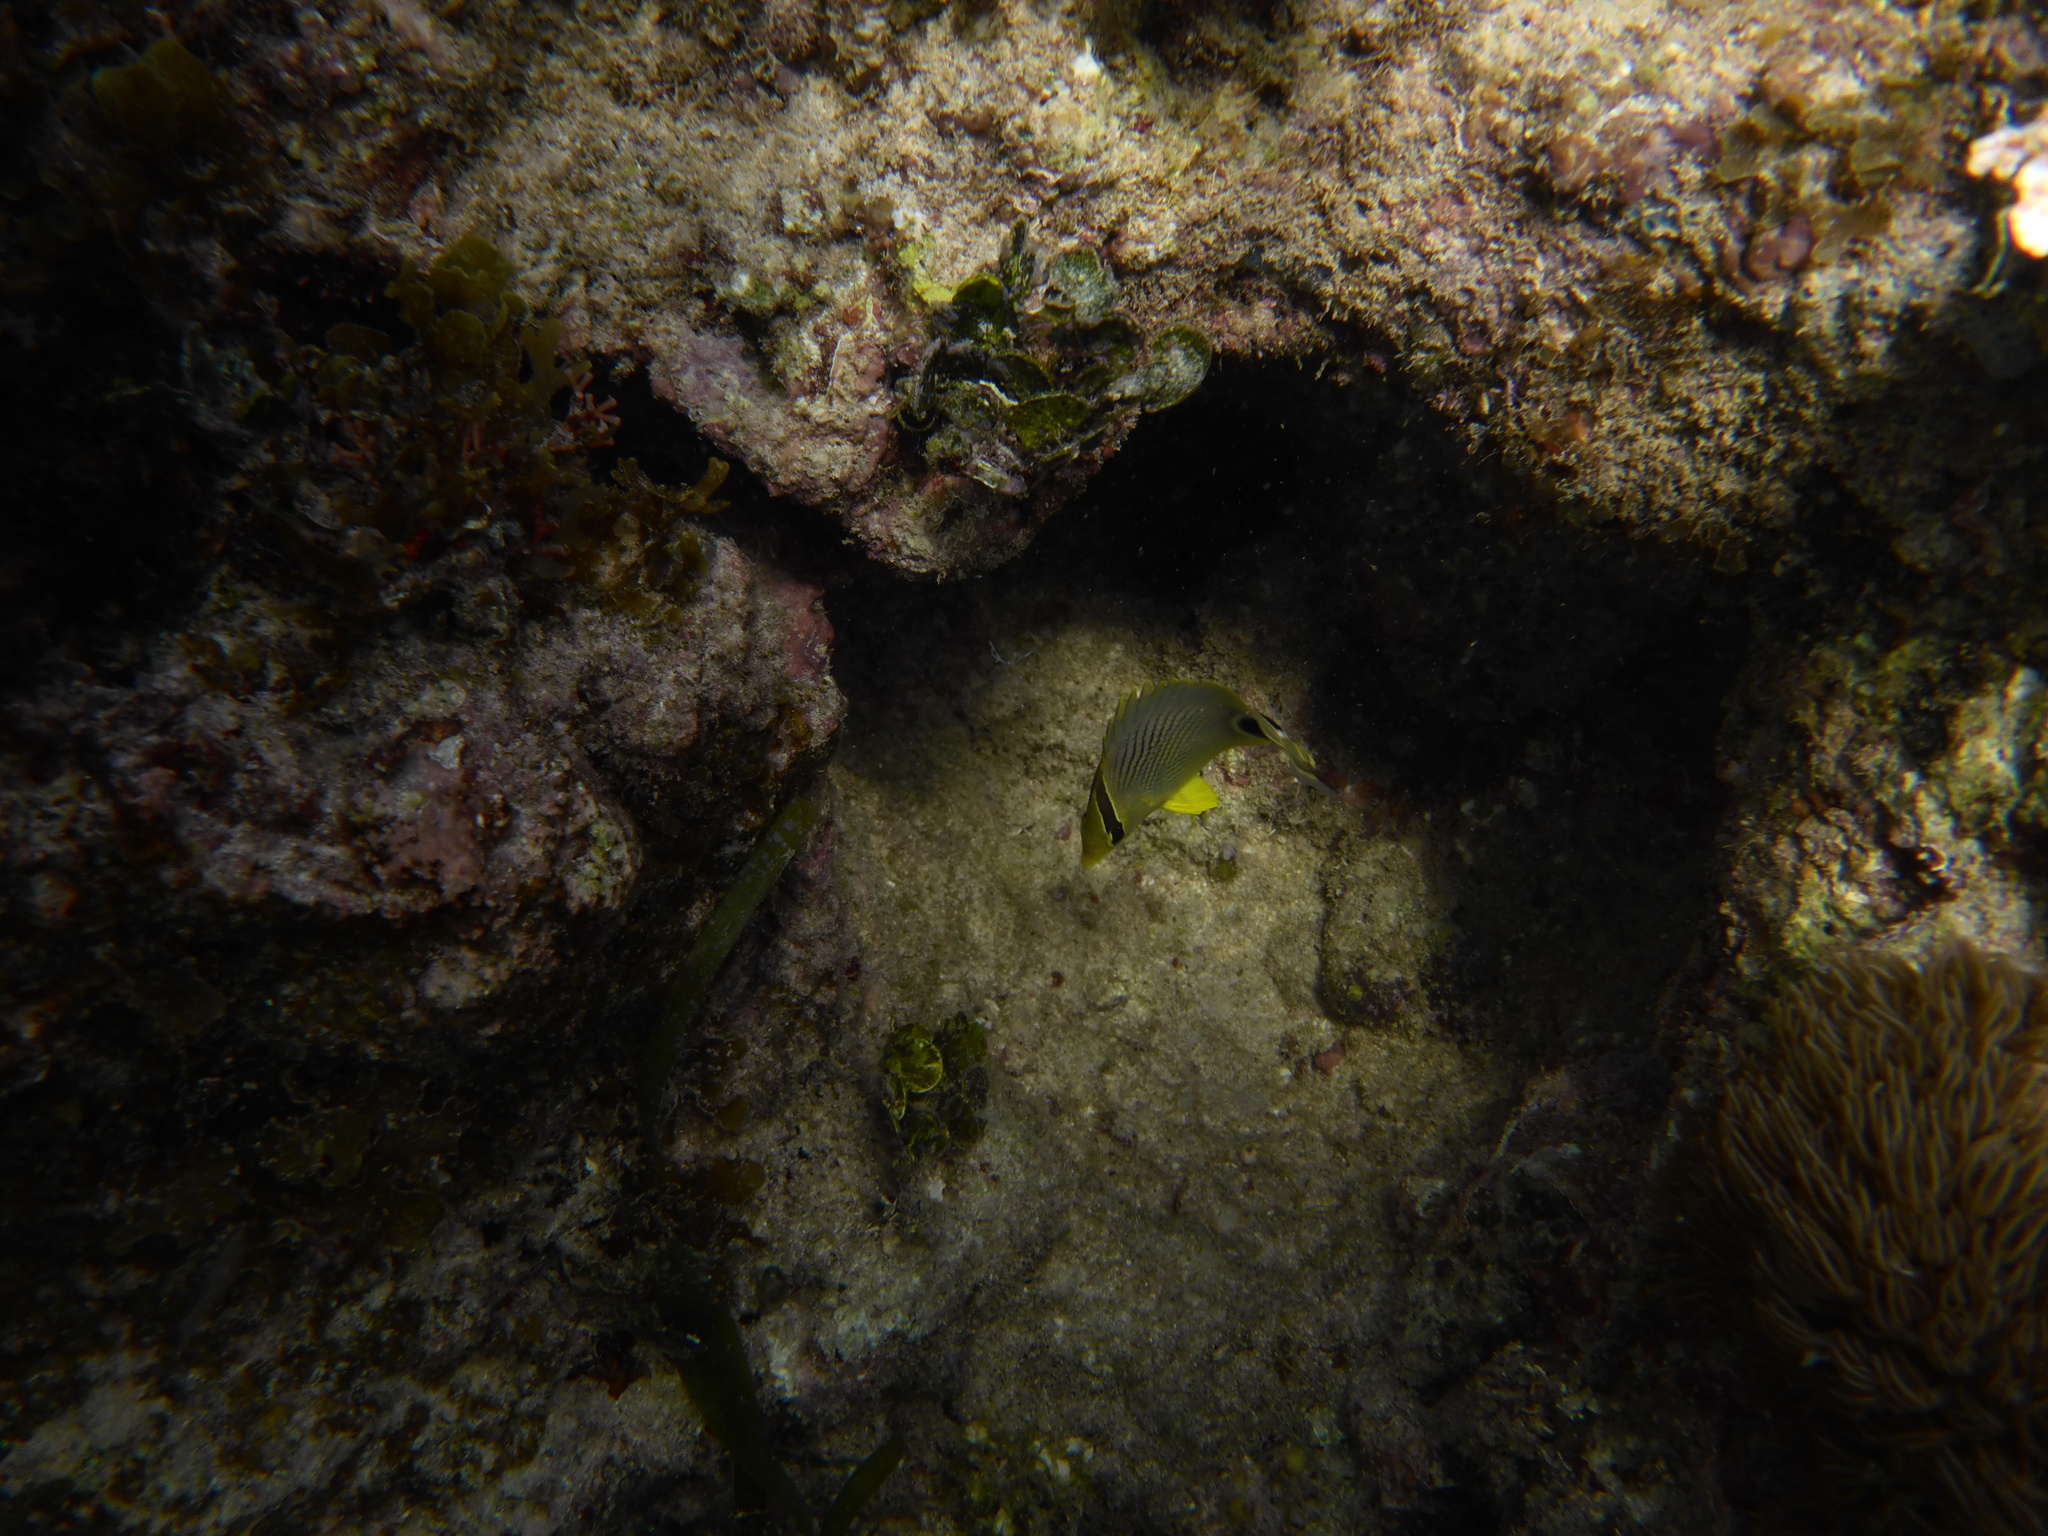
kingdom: Animalia
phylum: Chordata
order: Perciformes
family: Chaetodontidae
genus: Chaetodon
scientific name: Chaetodon capistratus
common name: Kete
